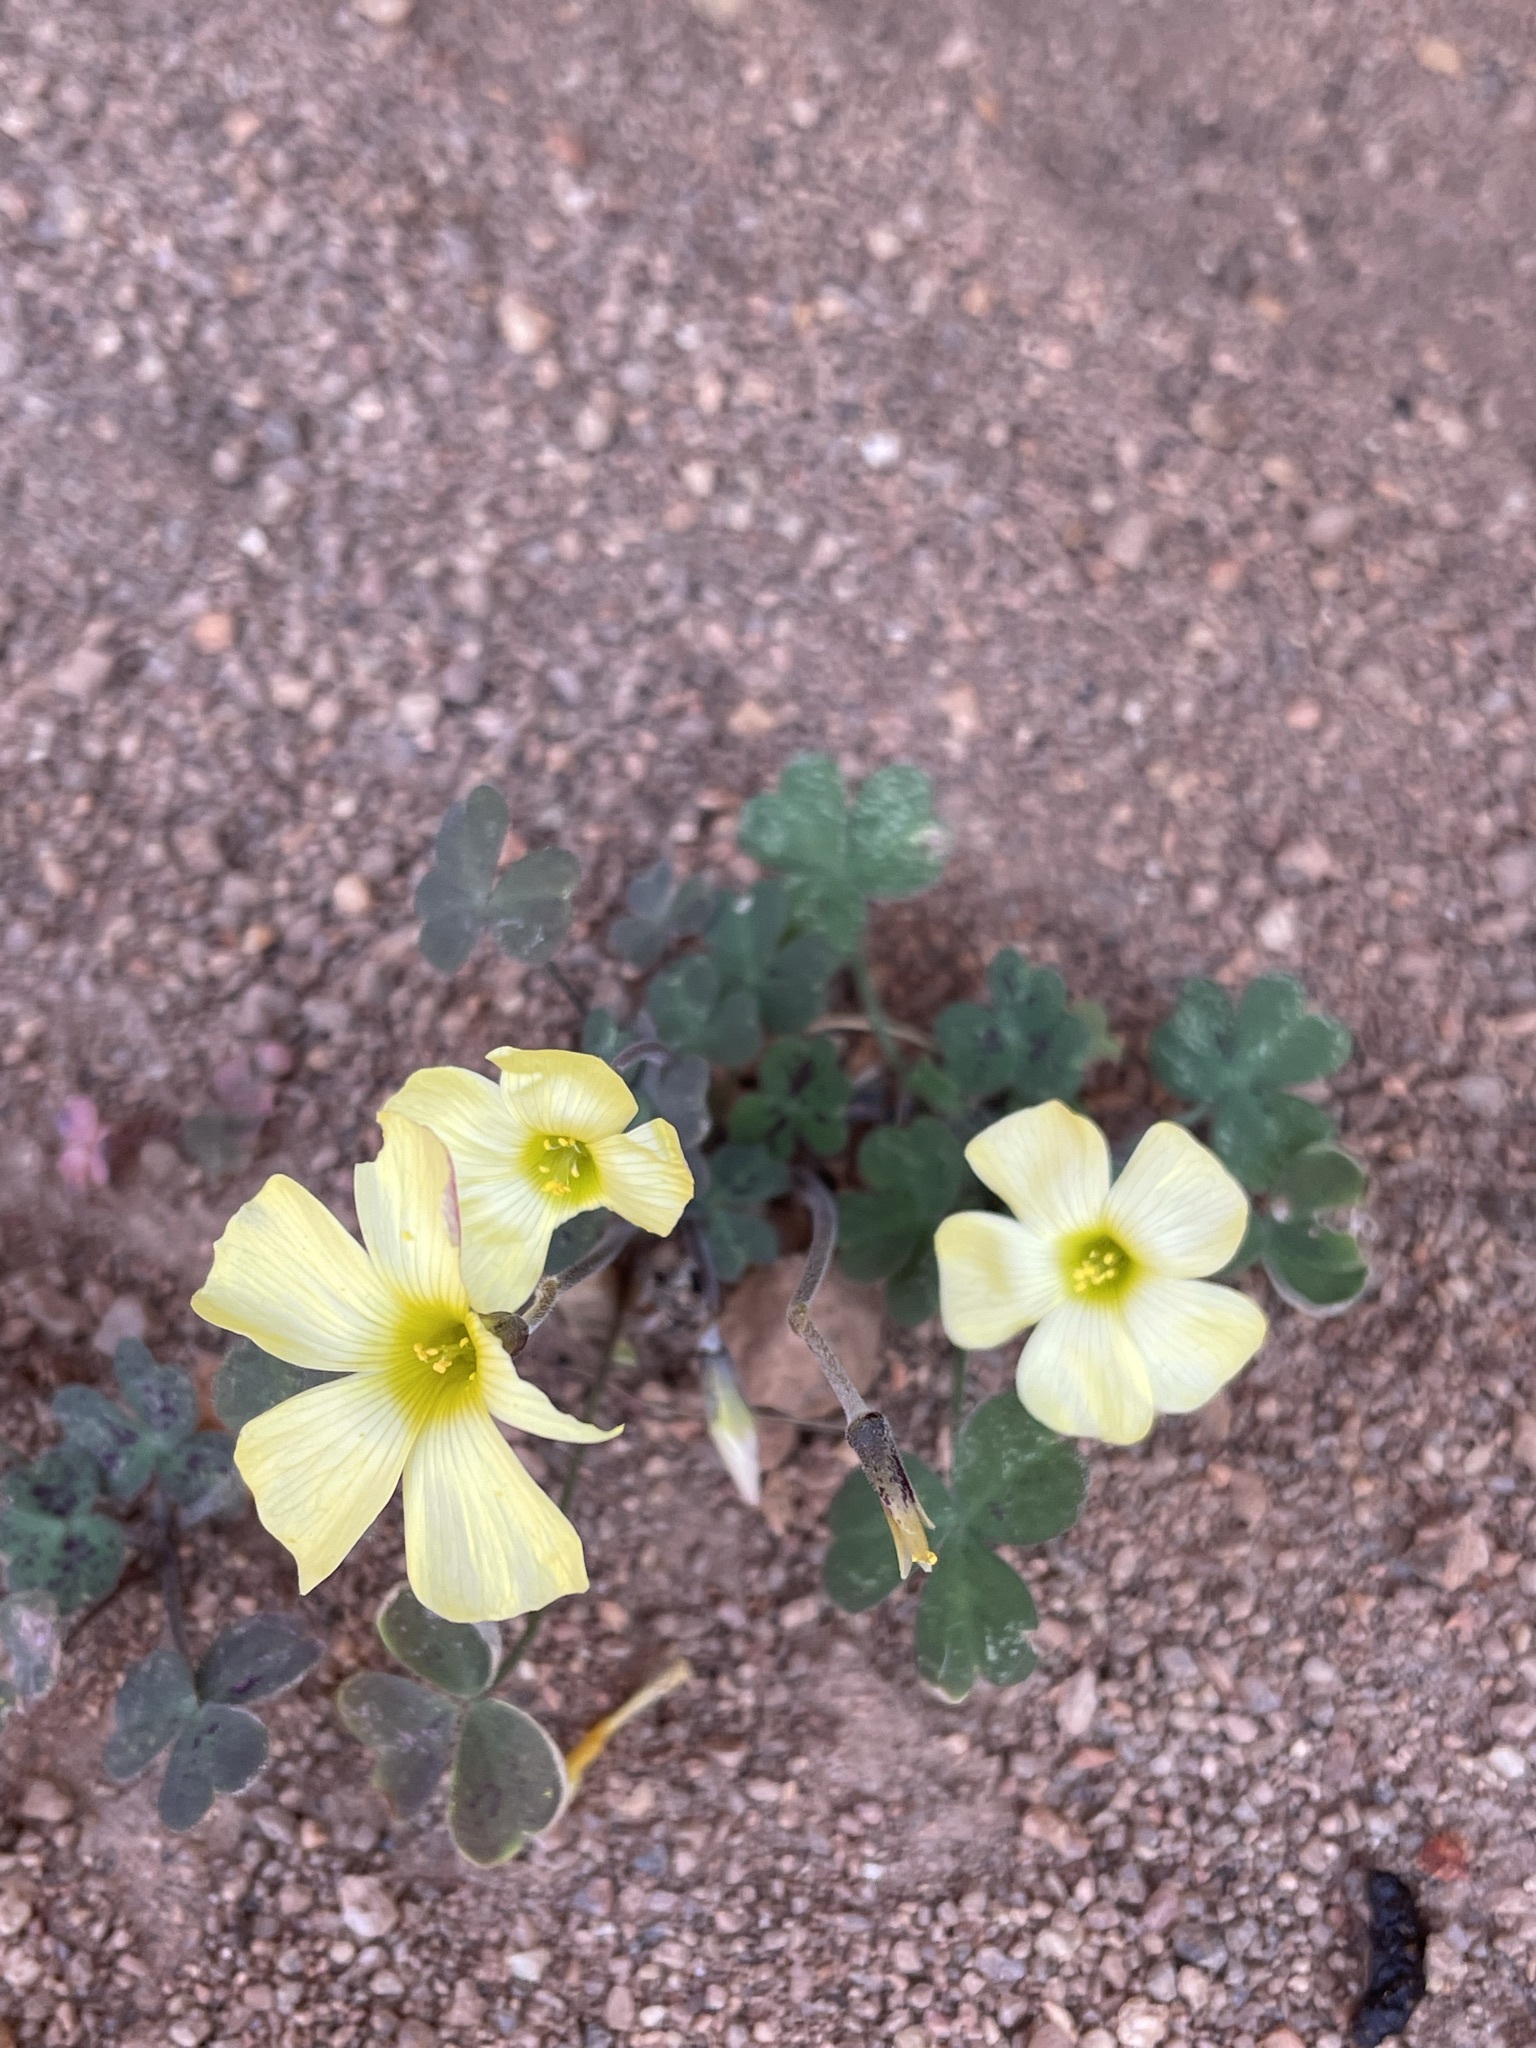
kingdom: Plantae
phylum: Tracheophyta
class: Magnoliopsida
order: Oxalidales
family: Oxalidaceae
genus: Oxalis
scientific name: Oxalis obtusa
